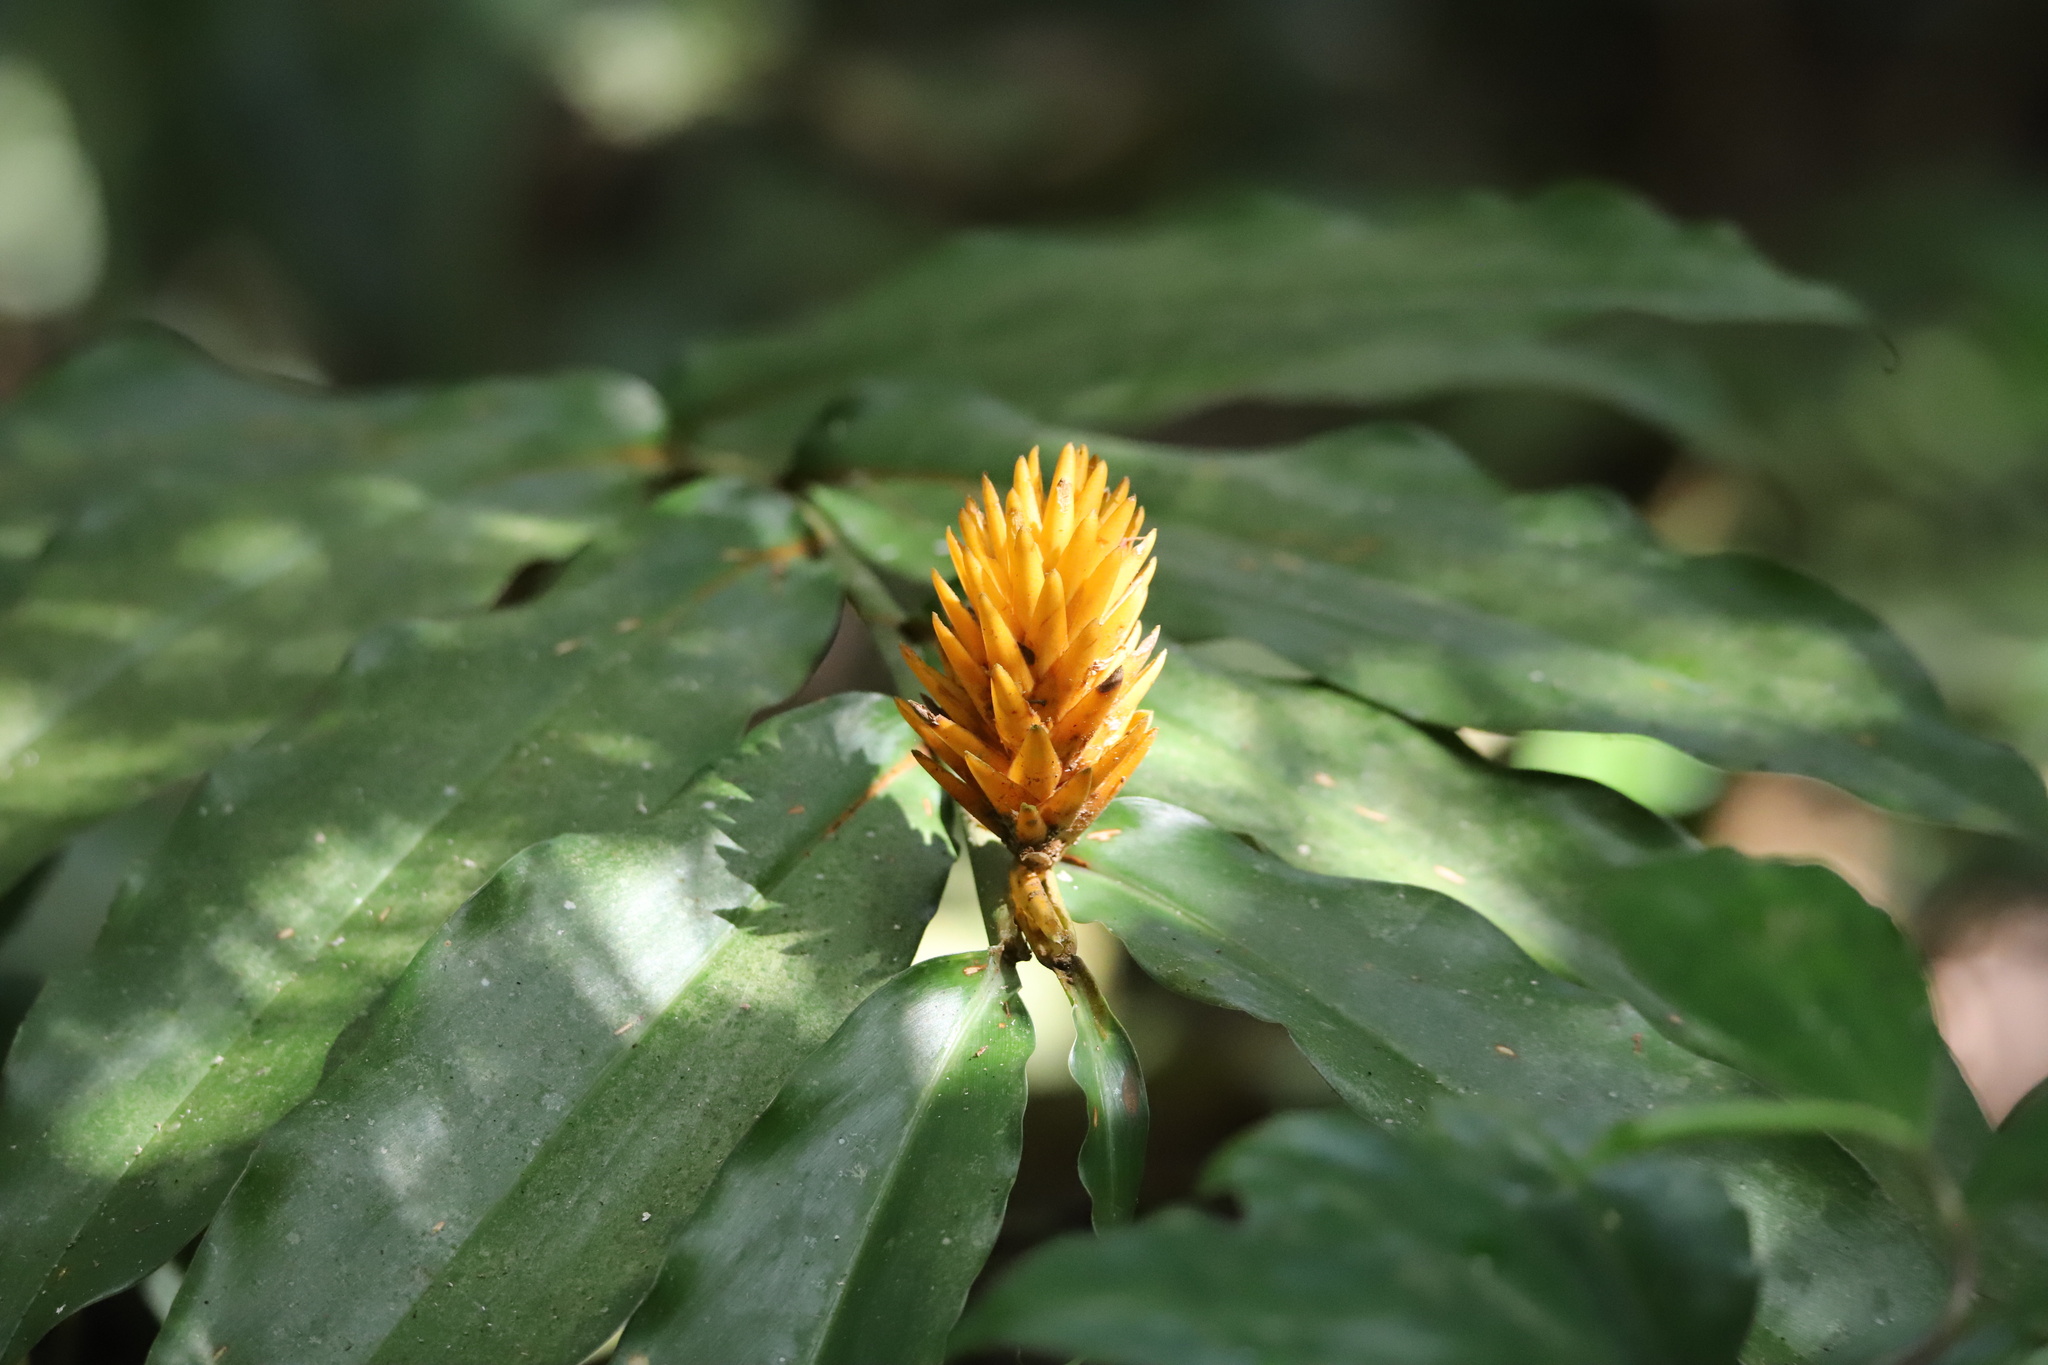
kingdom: Plantae
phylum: Tracheophyta
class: Liliopsida
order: Zingiberales
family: Zingiberaceae
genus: Renealmia
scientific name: Renealmia cernua
